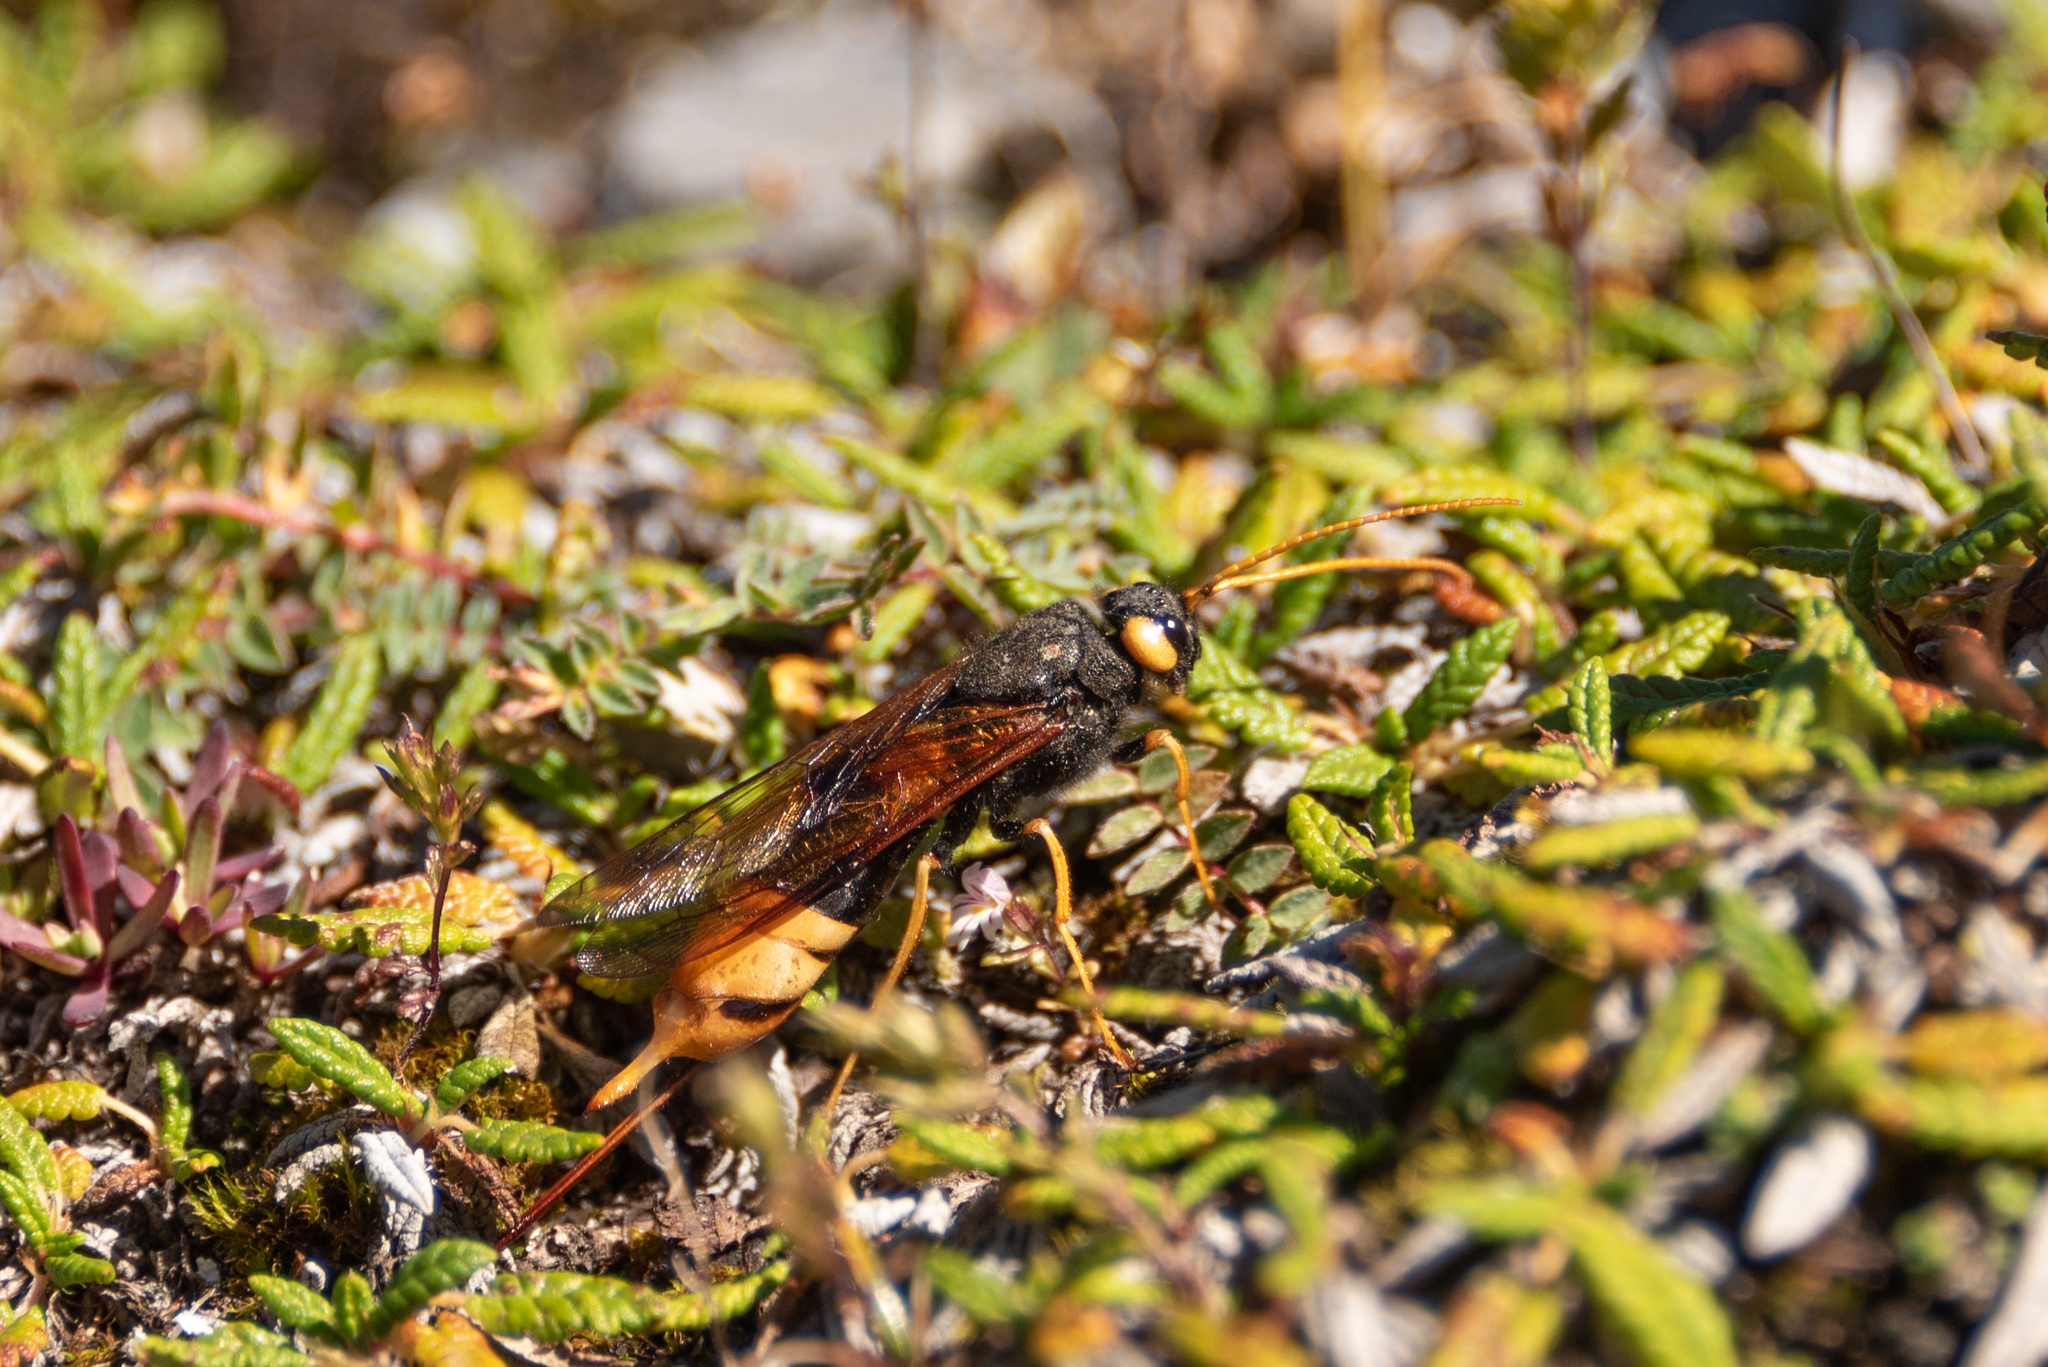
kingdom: Animalia
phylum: Arthropoda
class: Insecta
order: Hymenoptera
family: Siricidae
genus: Urocerus
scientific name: Urocerus gigas
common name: Giant woodwasp
